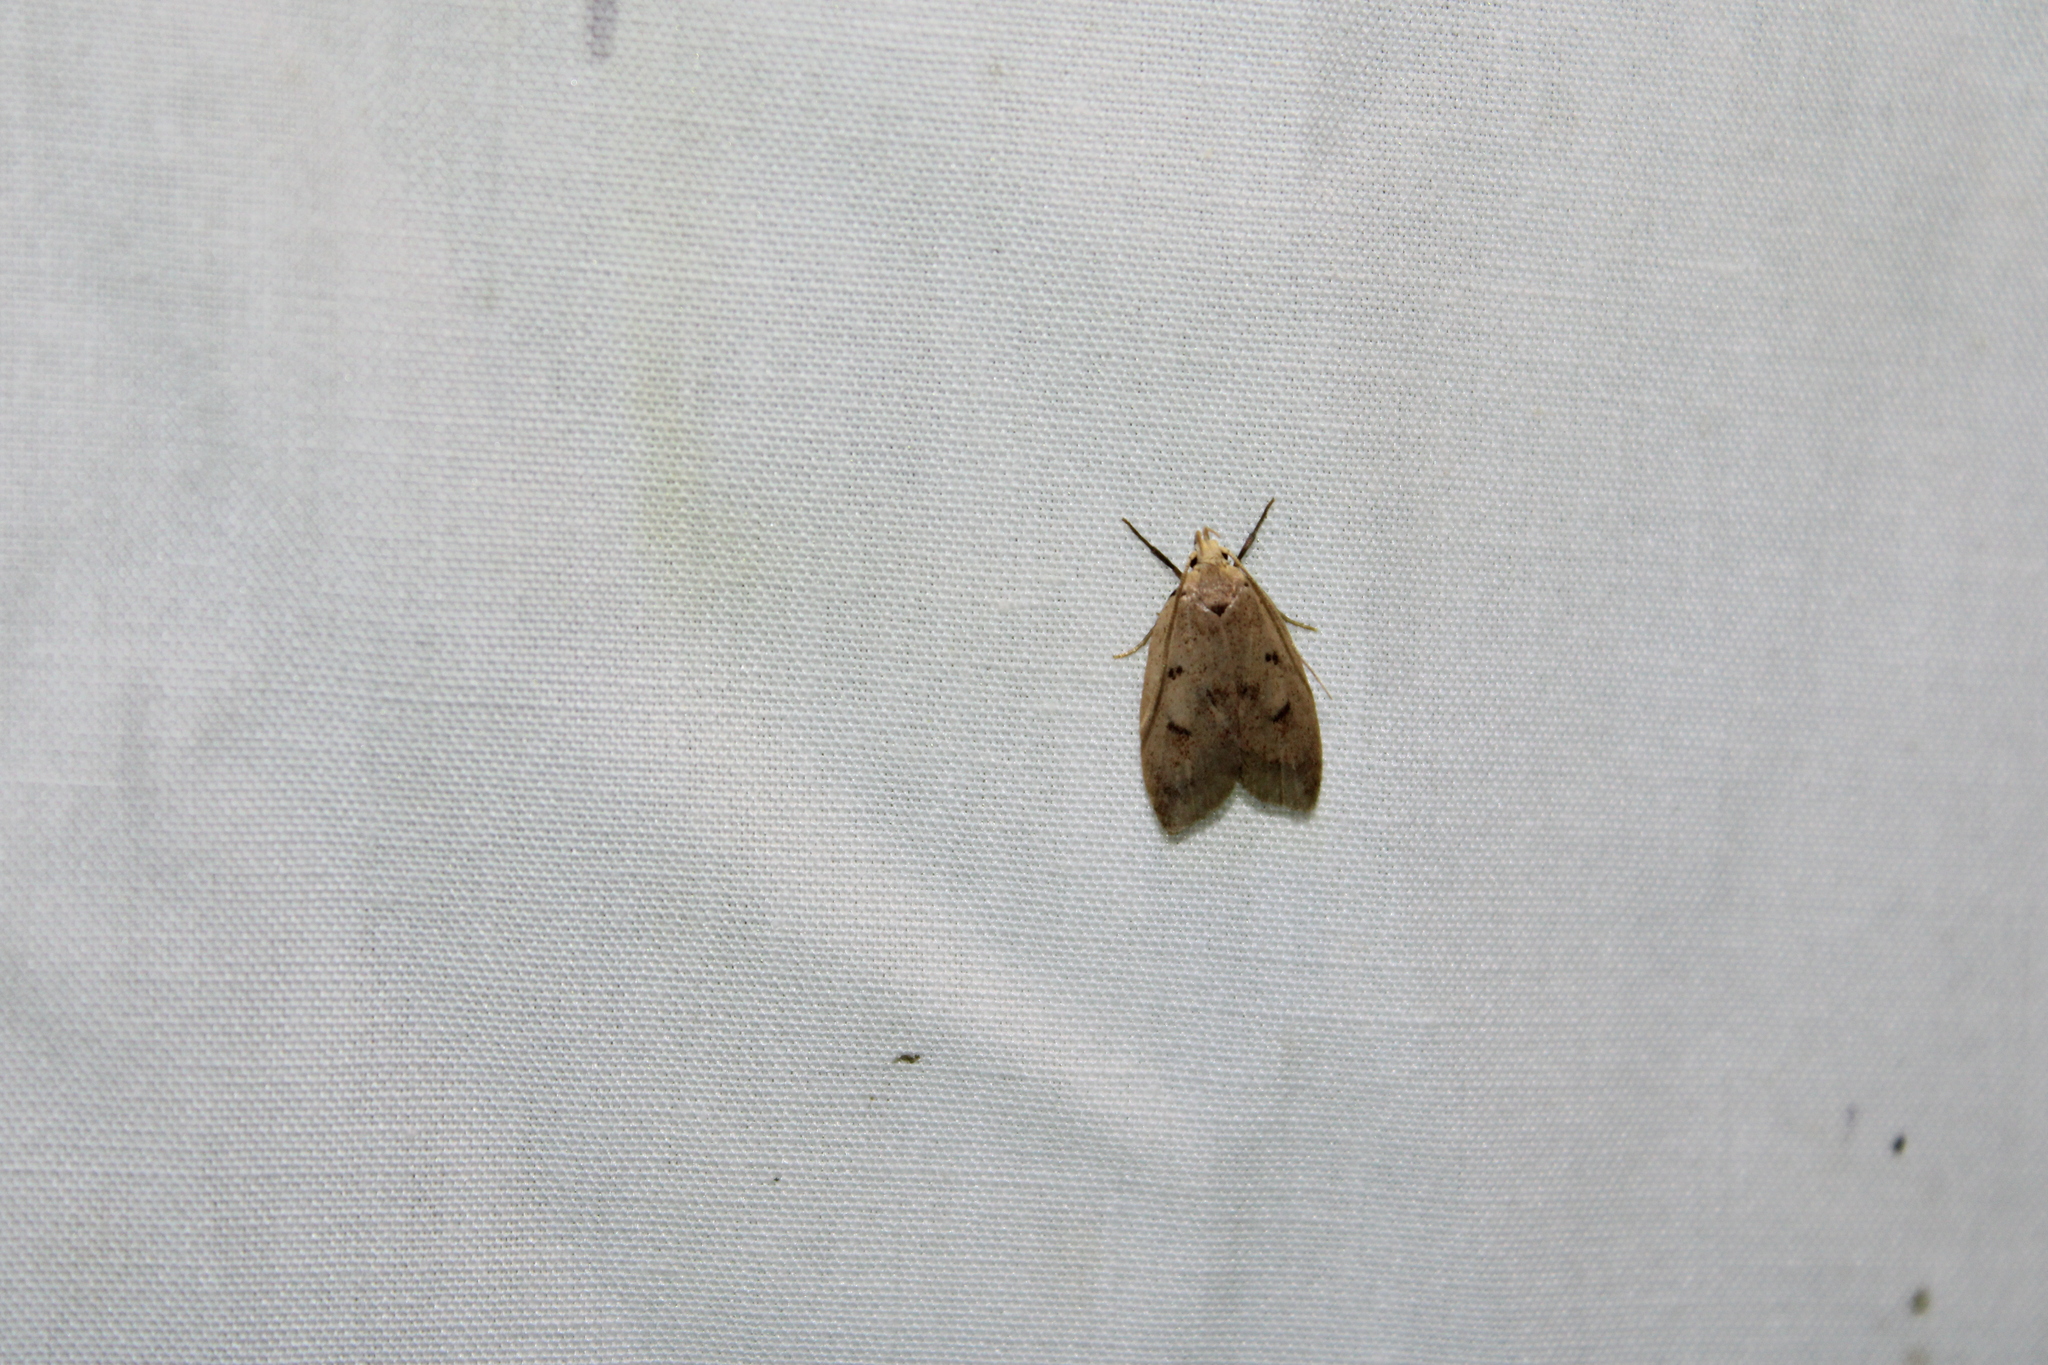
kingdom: Animalia
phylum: Arthropoda
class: Insecta
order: Lepidoptera
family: Peleopodidae
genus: Machimia
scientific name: Machimia tentoriferella
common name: Gold-striped leaftier moth
